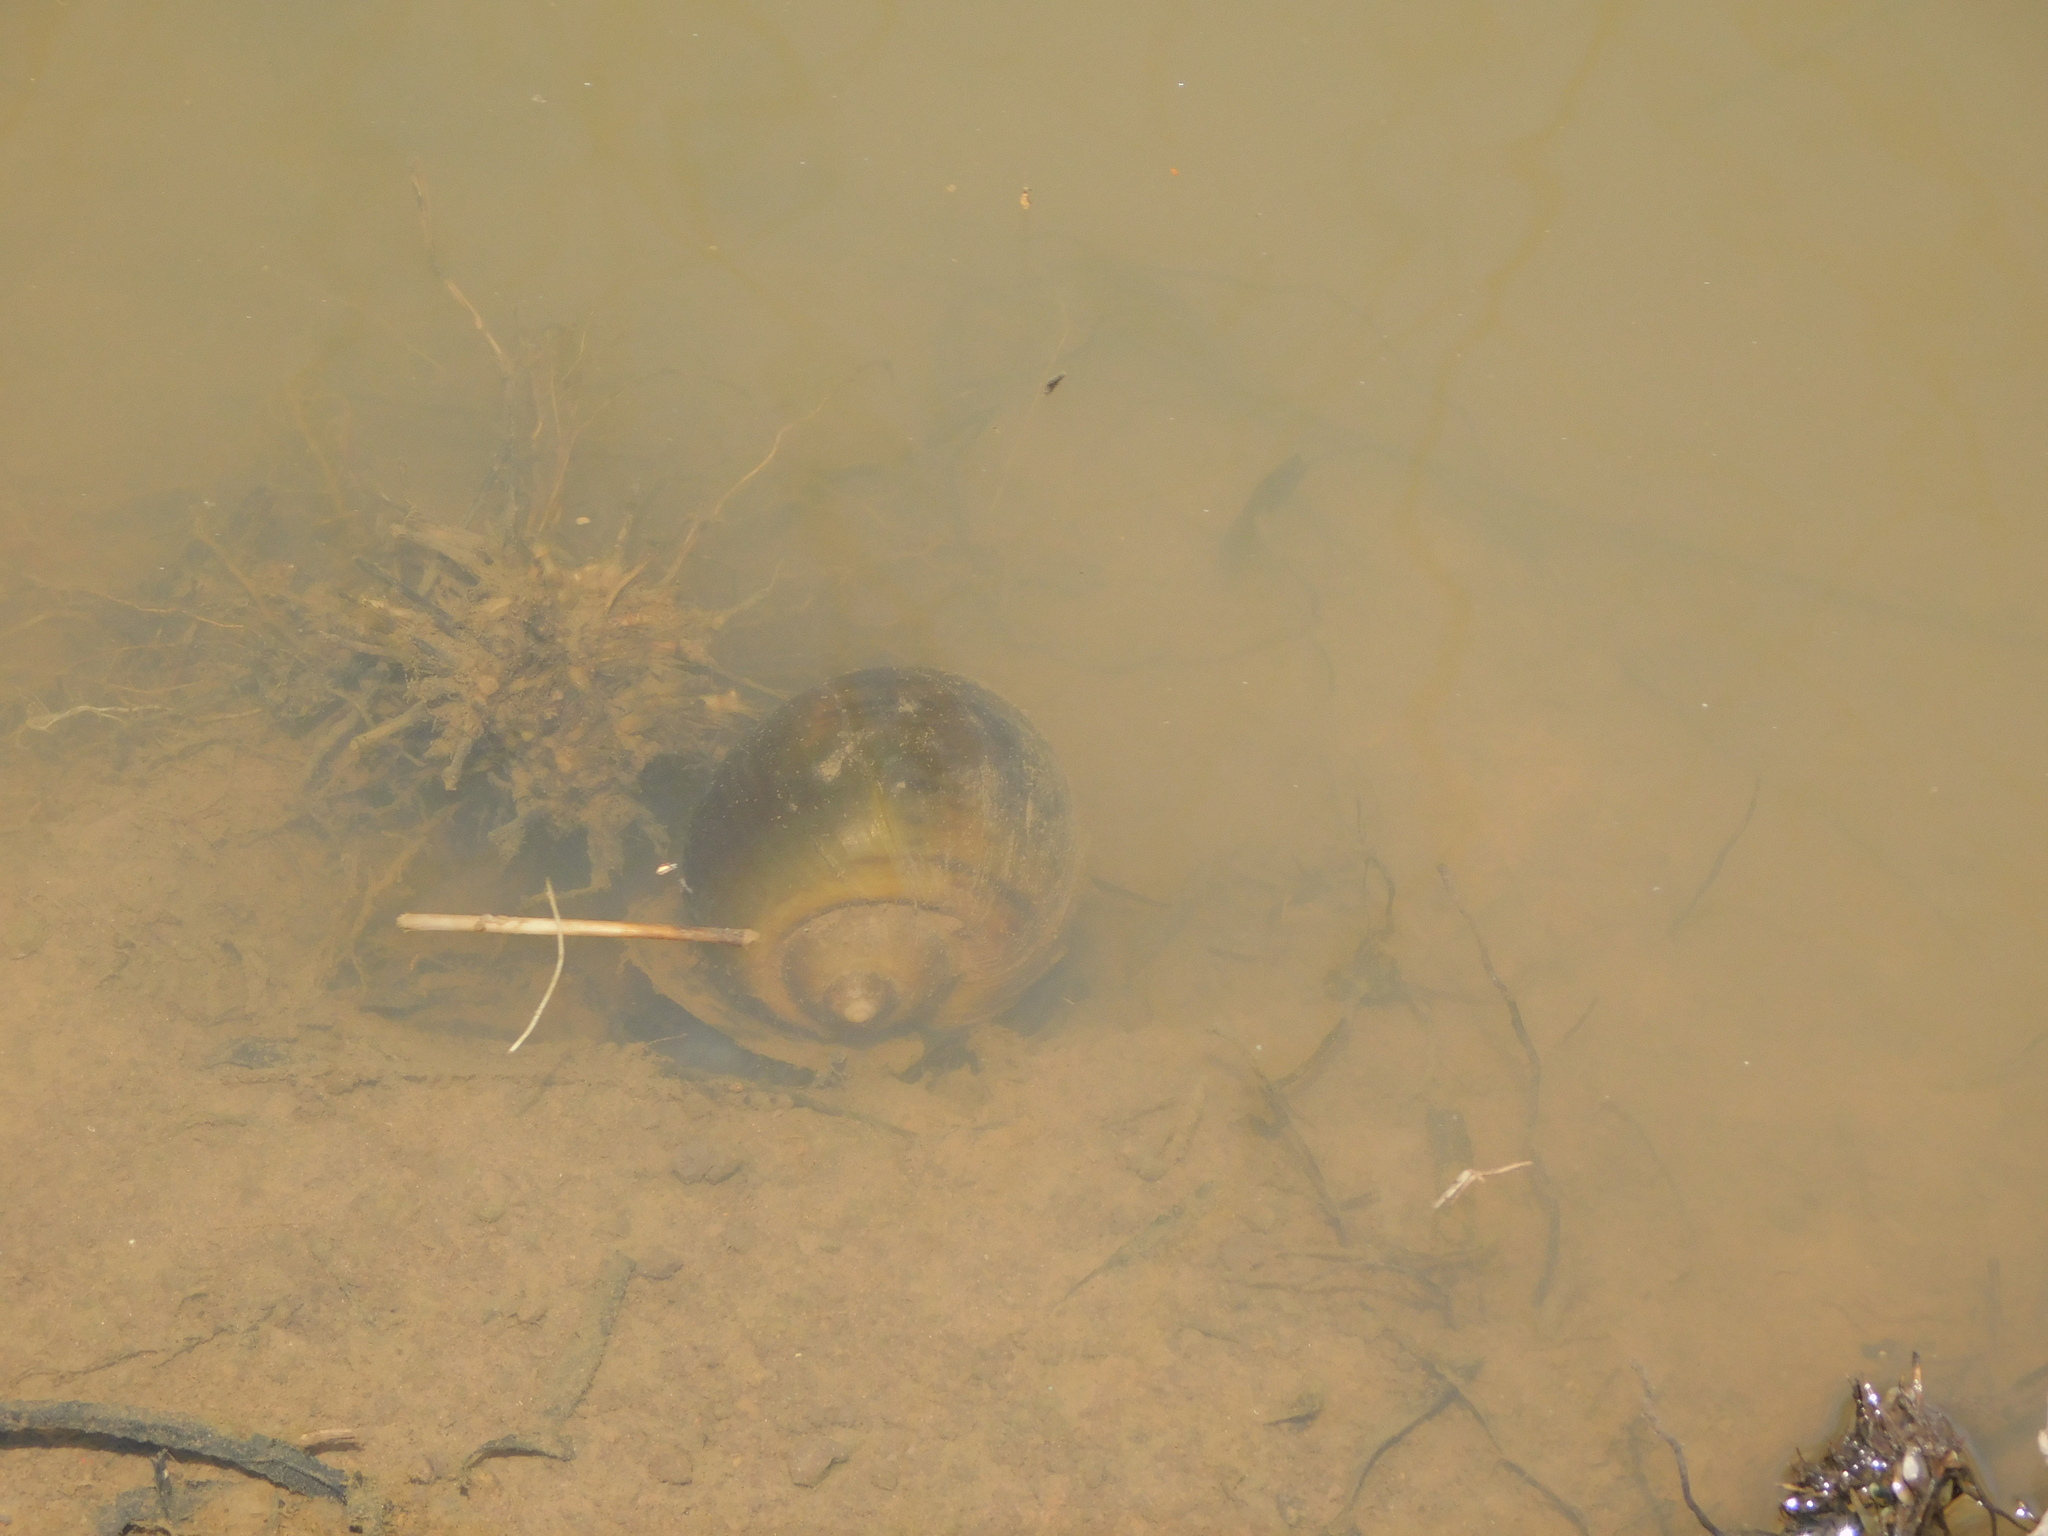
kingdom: Animalia
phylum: Mollusca
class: Gastropoda
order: Architaenioglossa
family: Ampullariidae
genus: Pomacea
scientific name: Pomacea canaliculata
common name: Channeled applesnail
